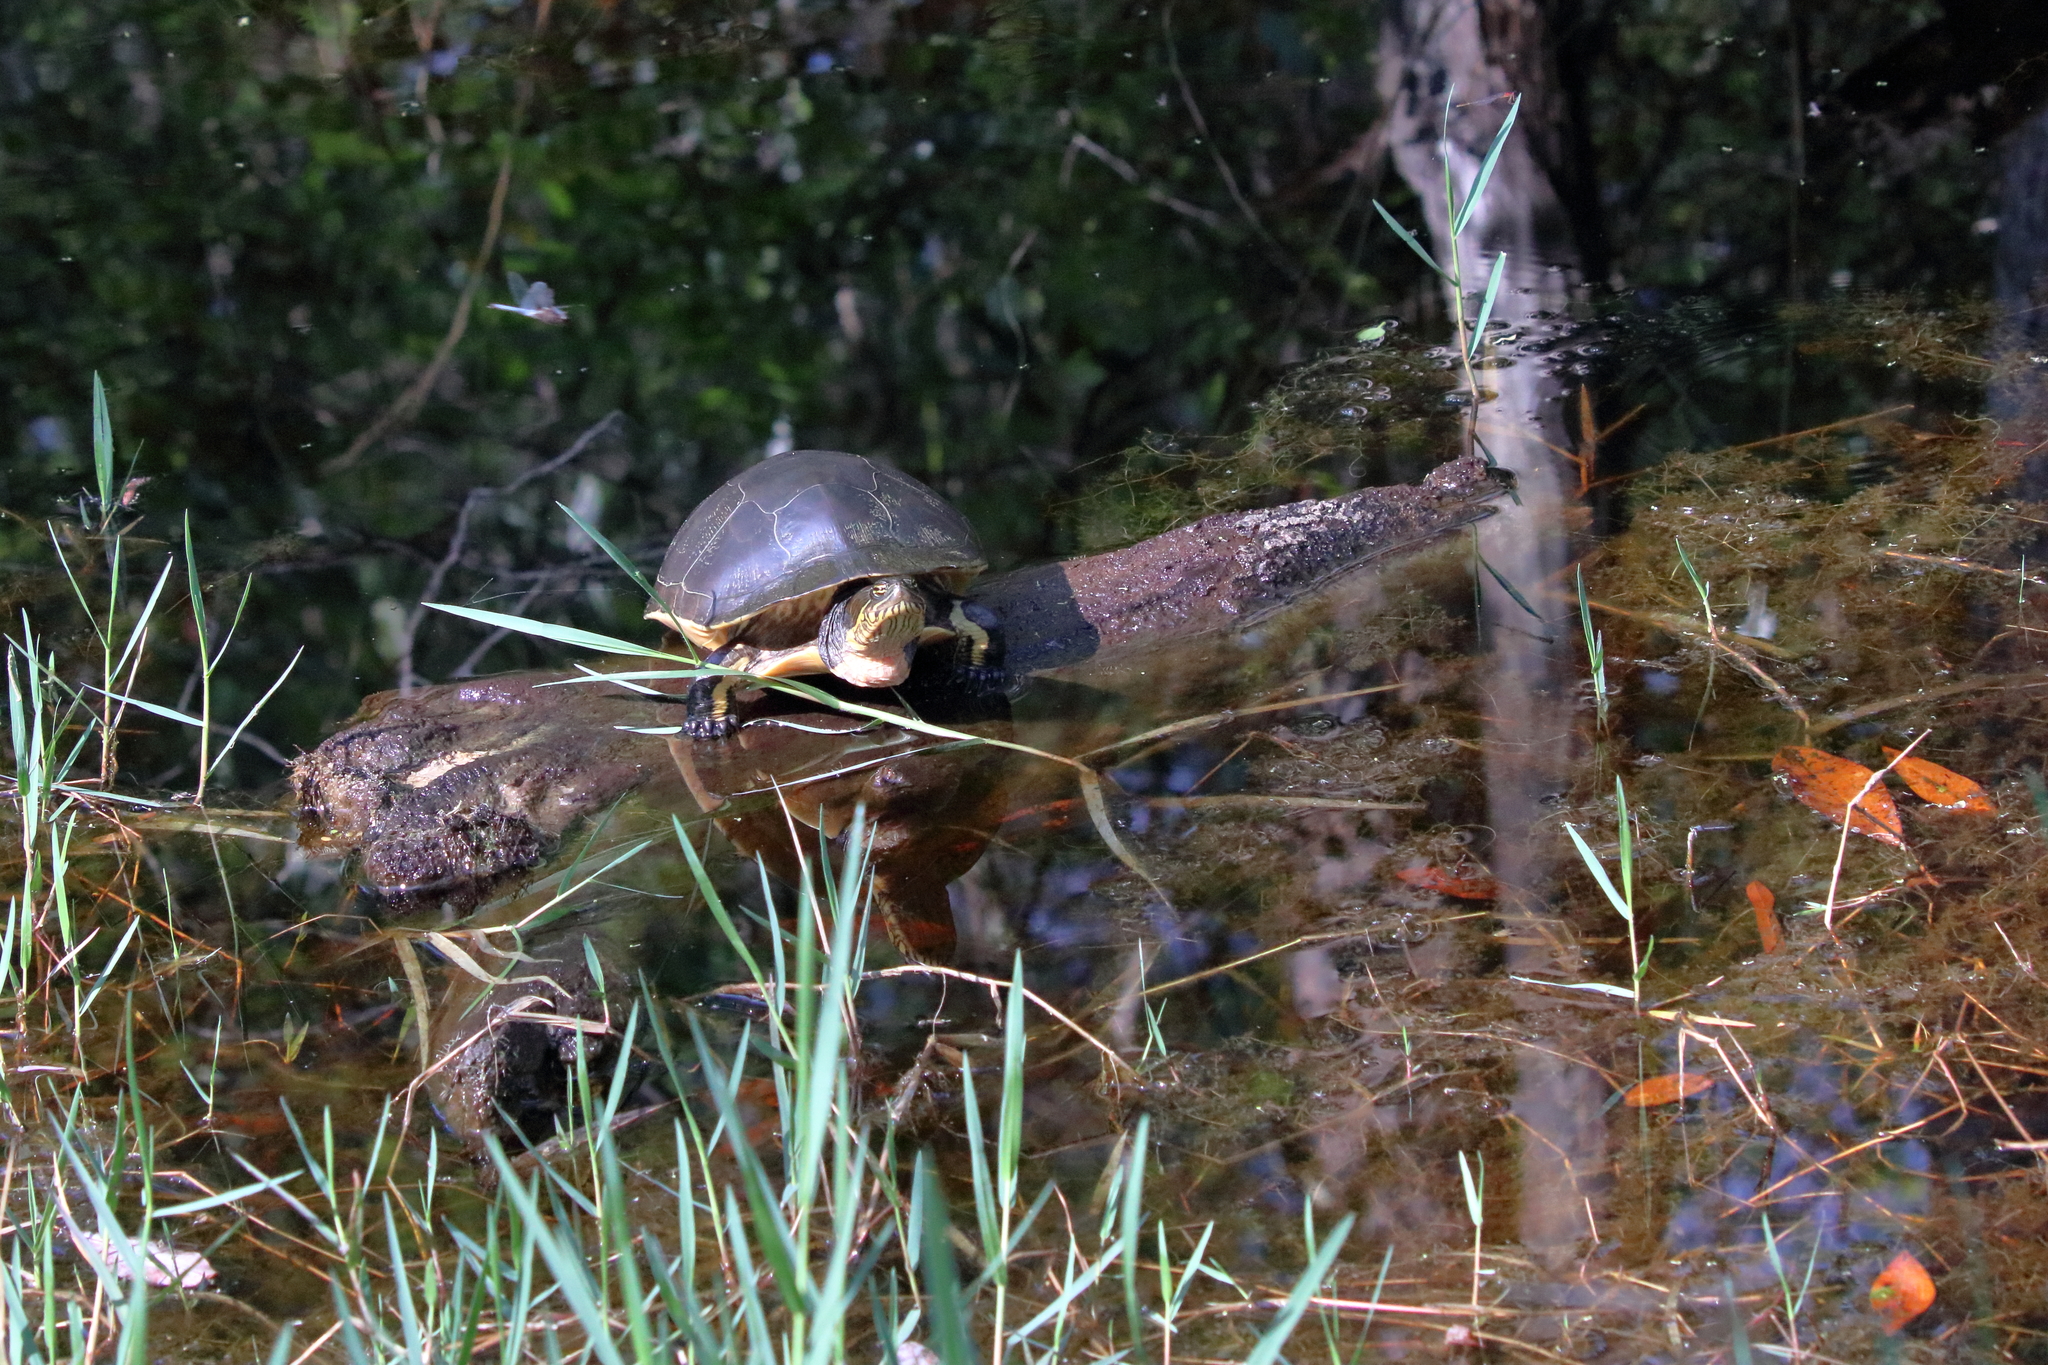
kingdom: Animalia
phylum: Chordata
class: Testudines
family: Emydidae
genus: Deirochelys
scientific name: Deirochelys reticularia
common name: Chicken turtle
